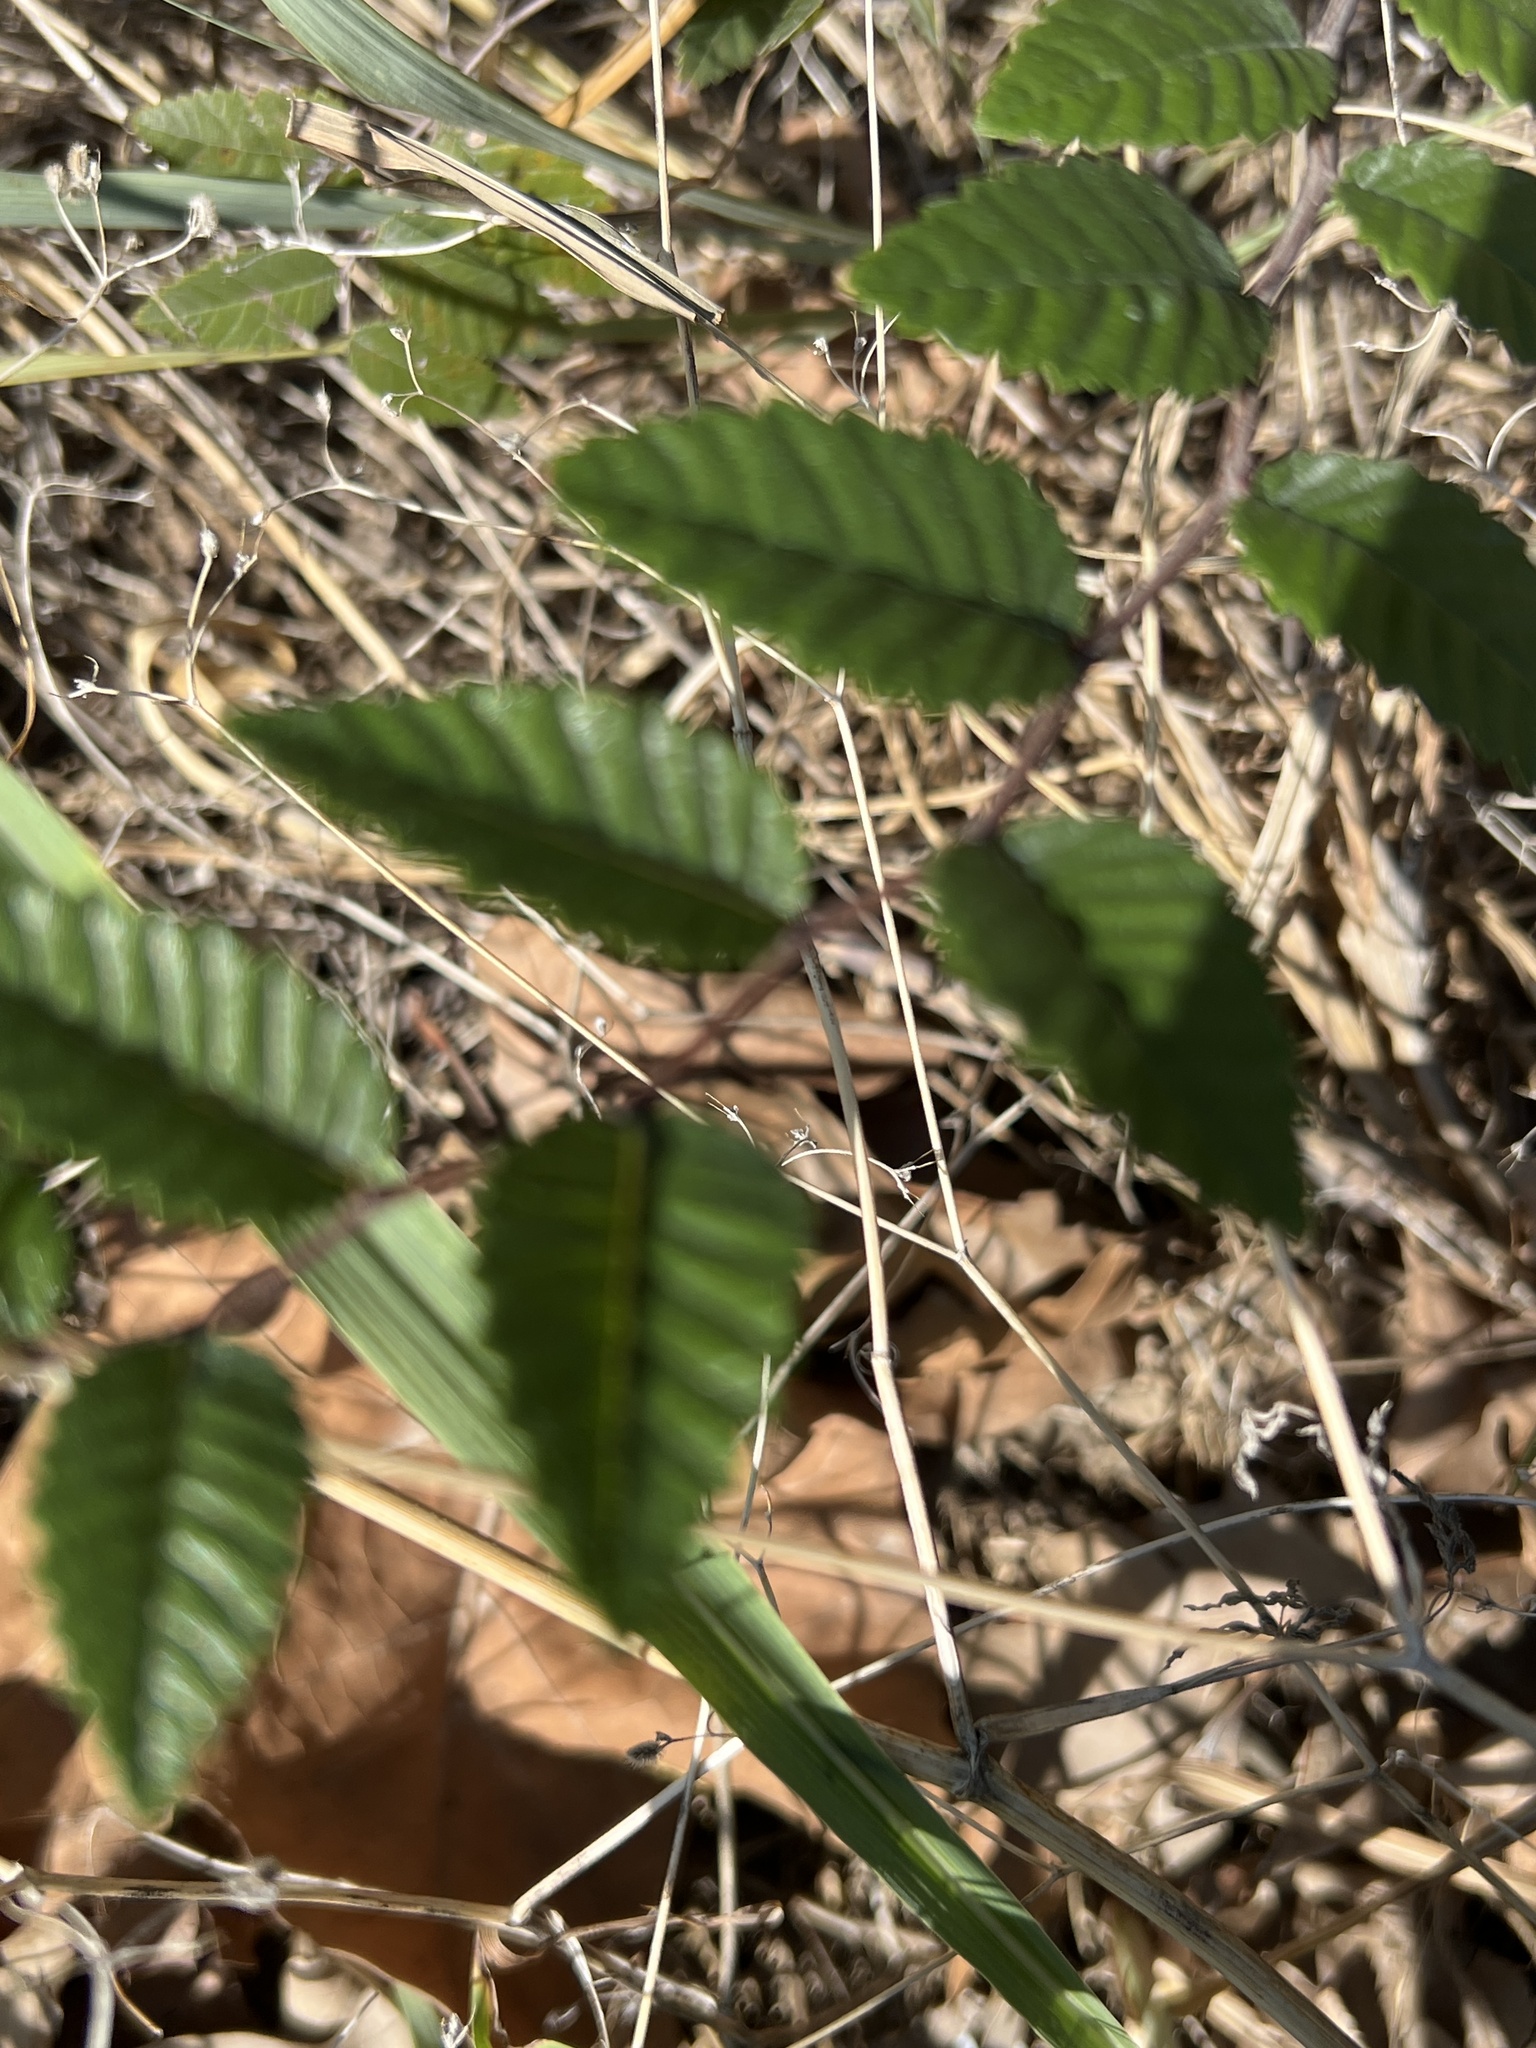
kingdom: Plantae
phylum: Tracheophyta
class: Magnoliopsida
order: Rosales
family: Ulmaceae
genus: Ulmus
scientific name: Ulmus crassifolia
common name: Basket elm
